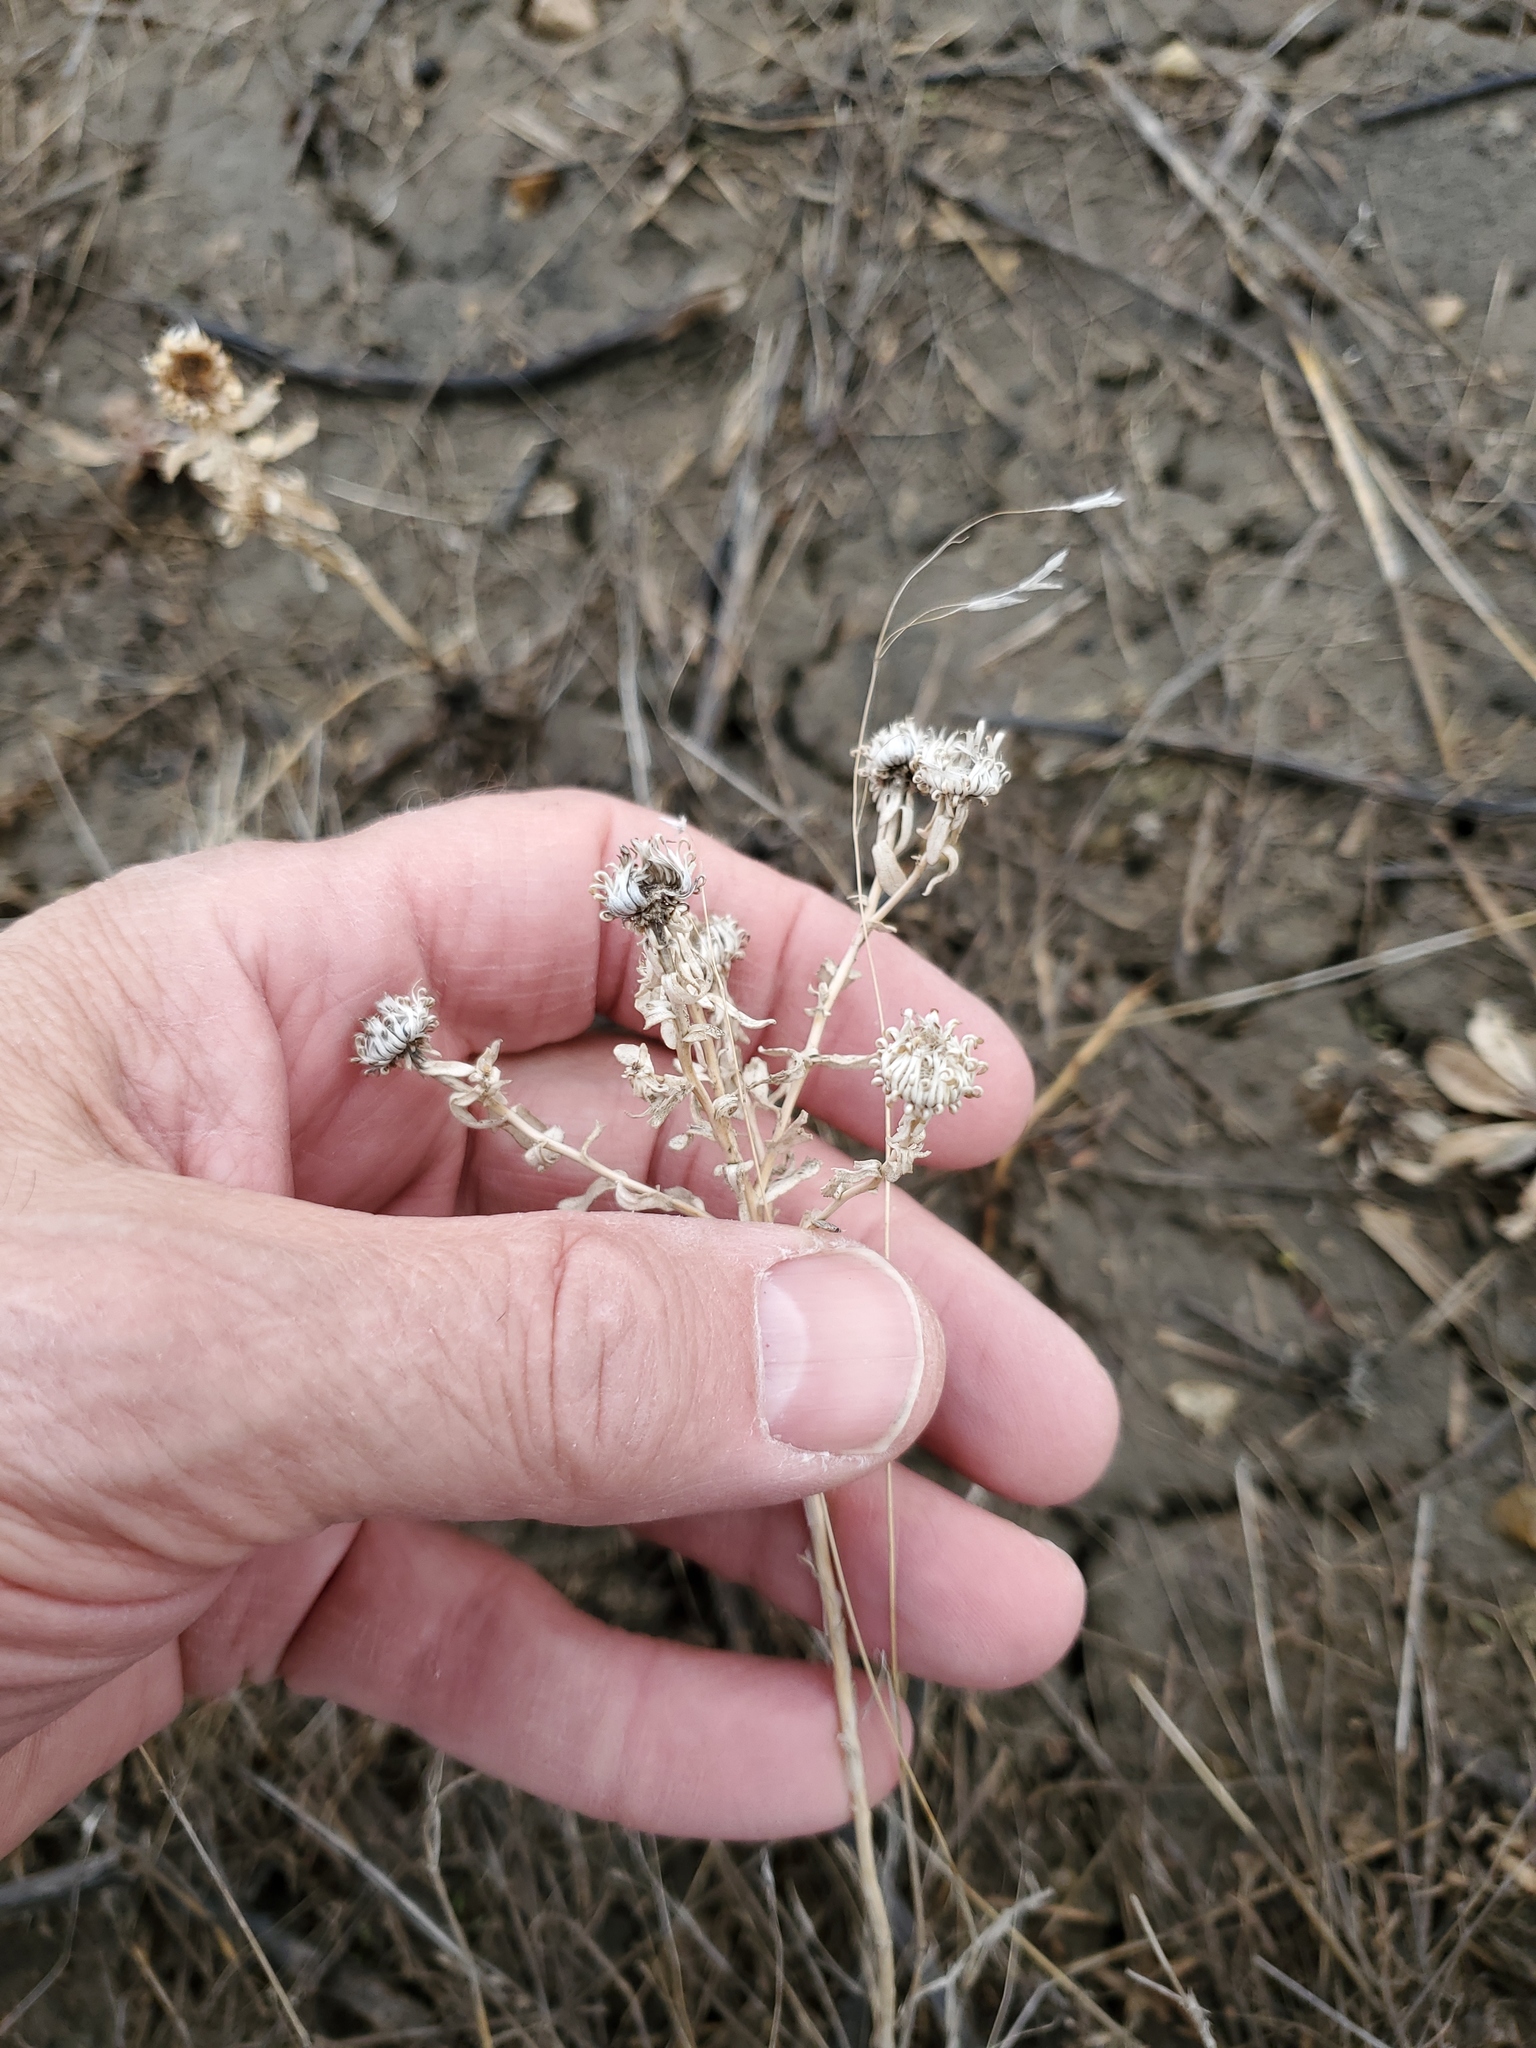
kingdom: Plantae
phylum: Tracheophyta
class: Magnoliopsida
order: Asterales
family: Asteraceae
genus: Grindelia
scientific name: Grindelia squarrosa
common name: Curly-cup gumweed
